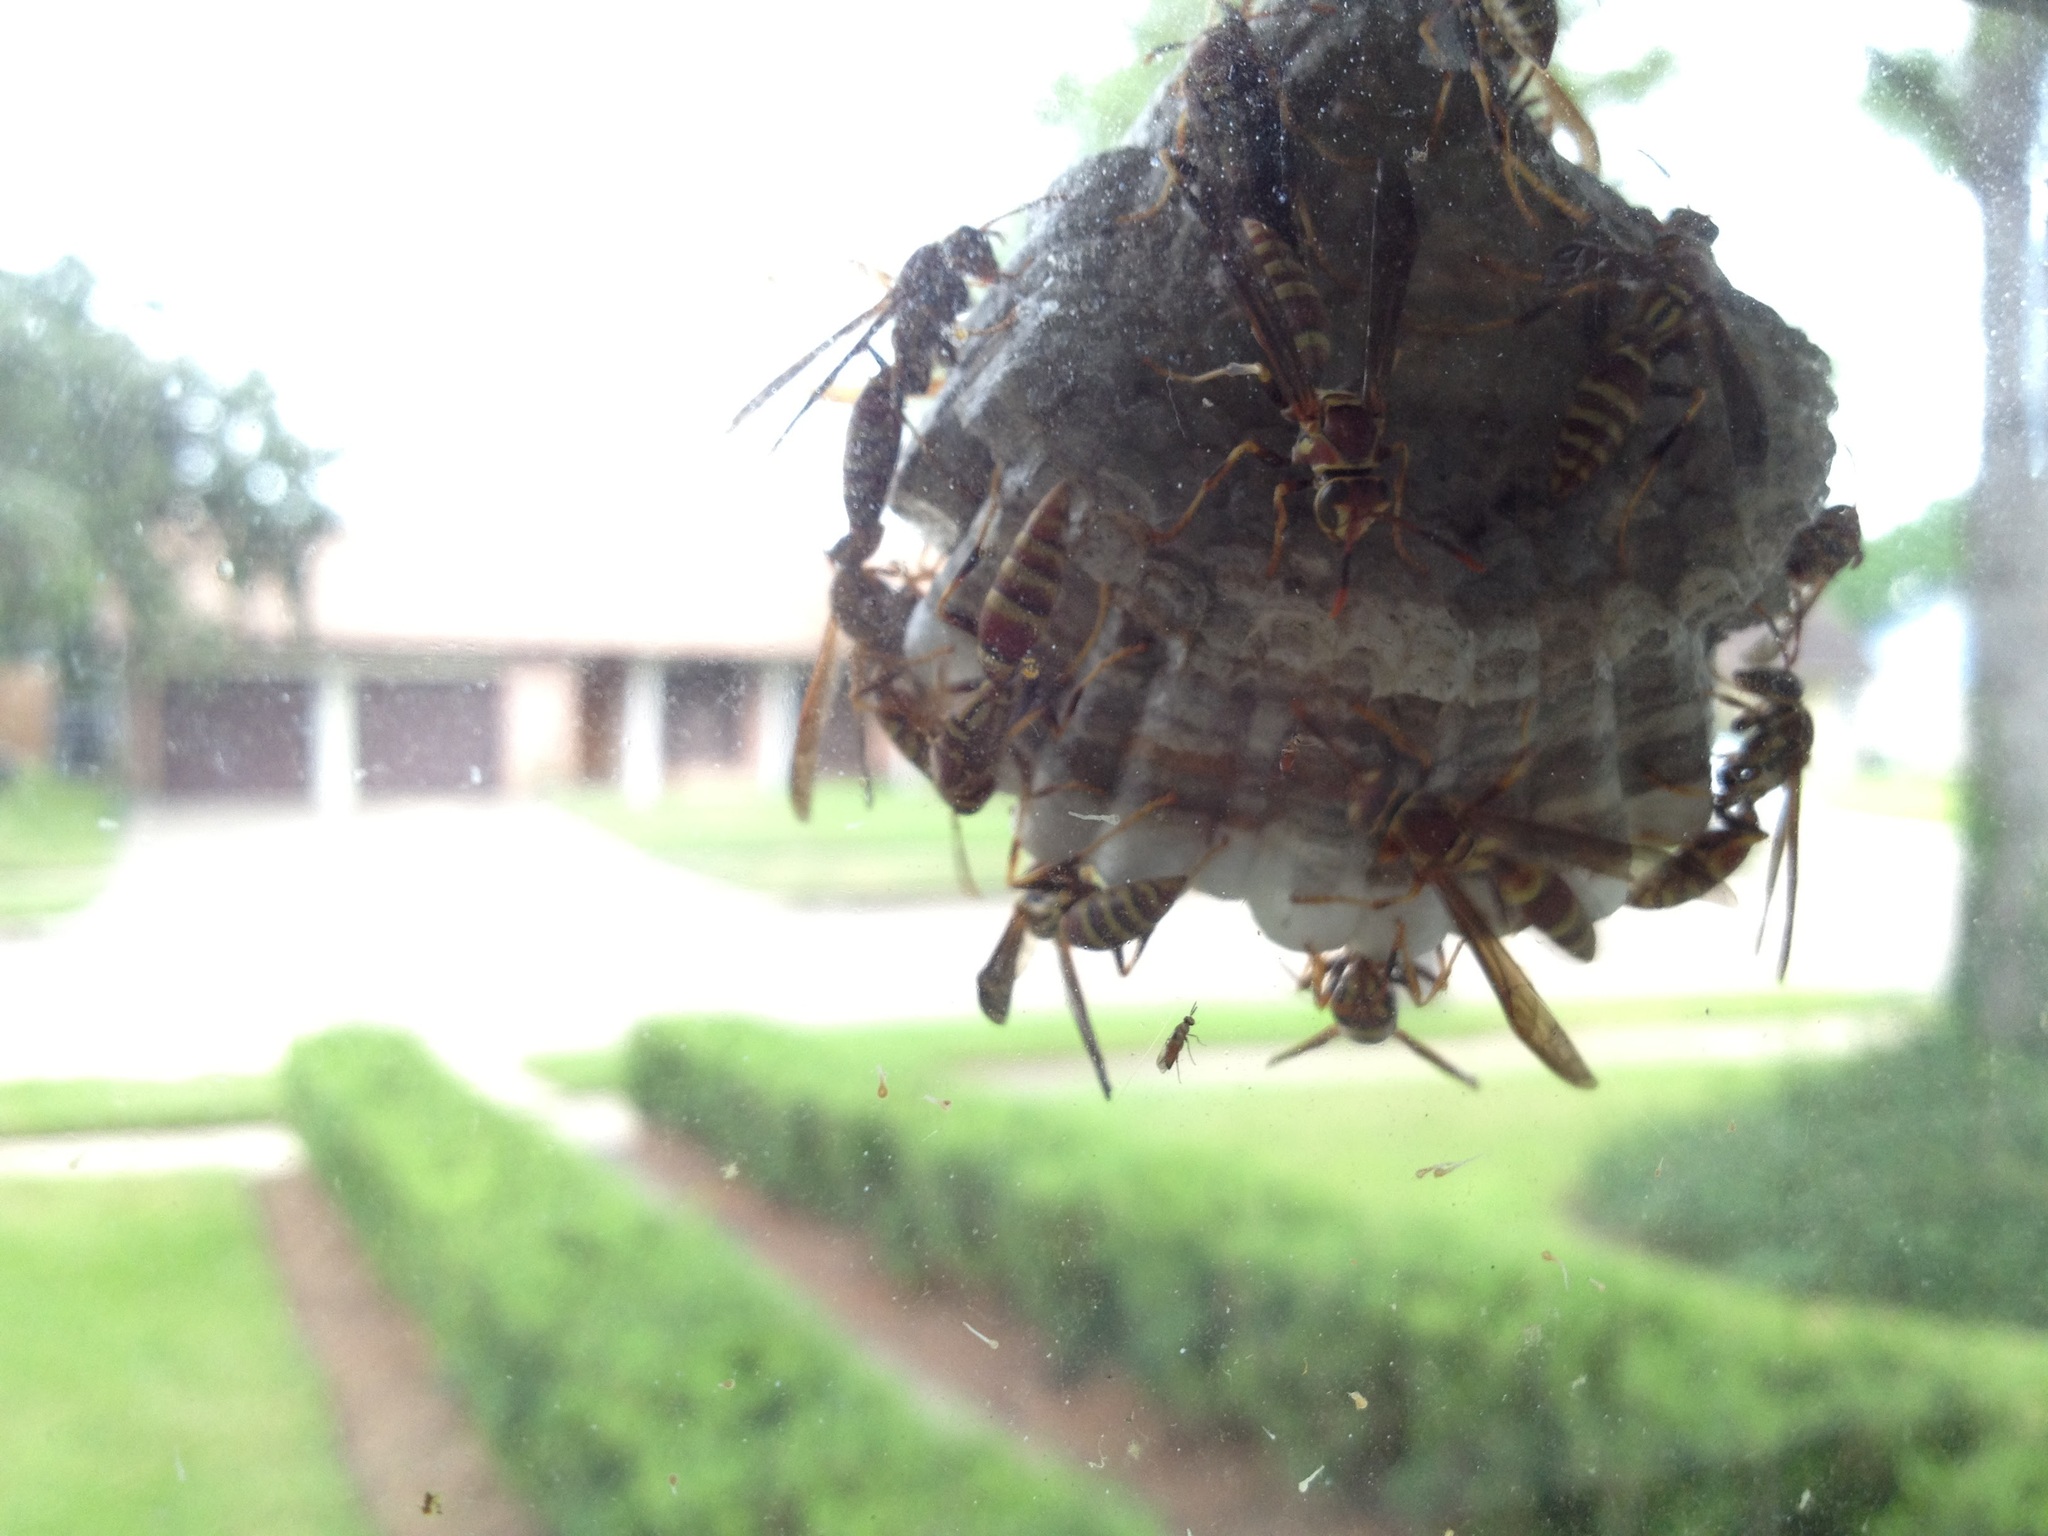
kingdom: Animalia
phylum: Arthropoda
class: Insecta
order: Hymenoptera
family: Eumenidae
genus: Polistes
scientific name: Polistes exclamans
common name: Paper wasp
